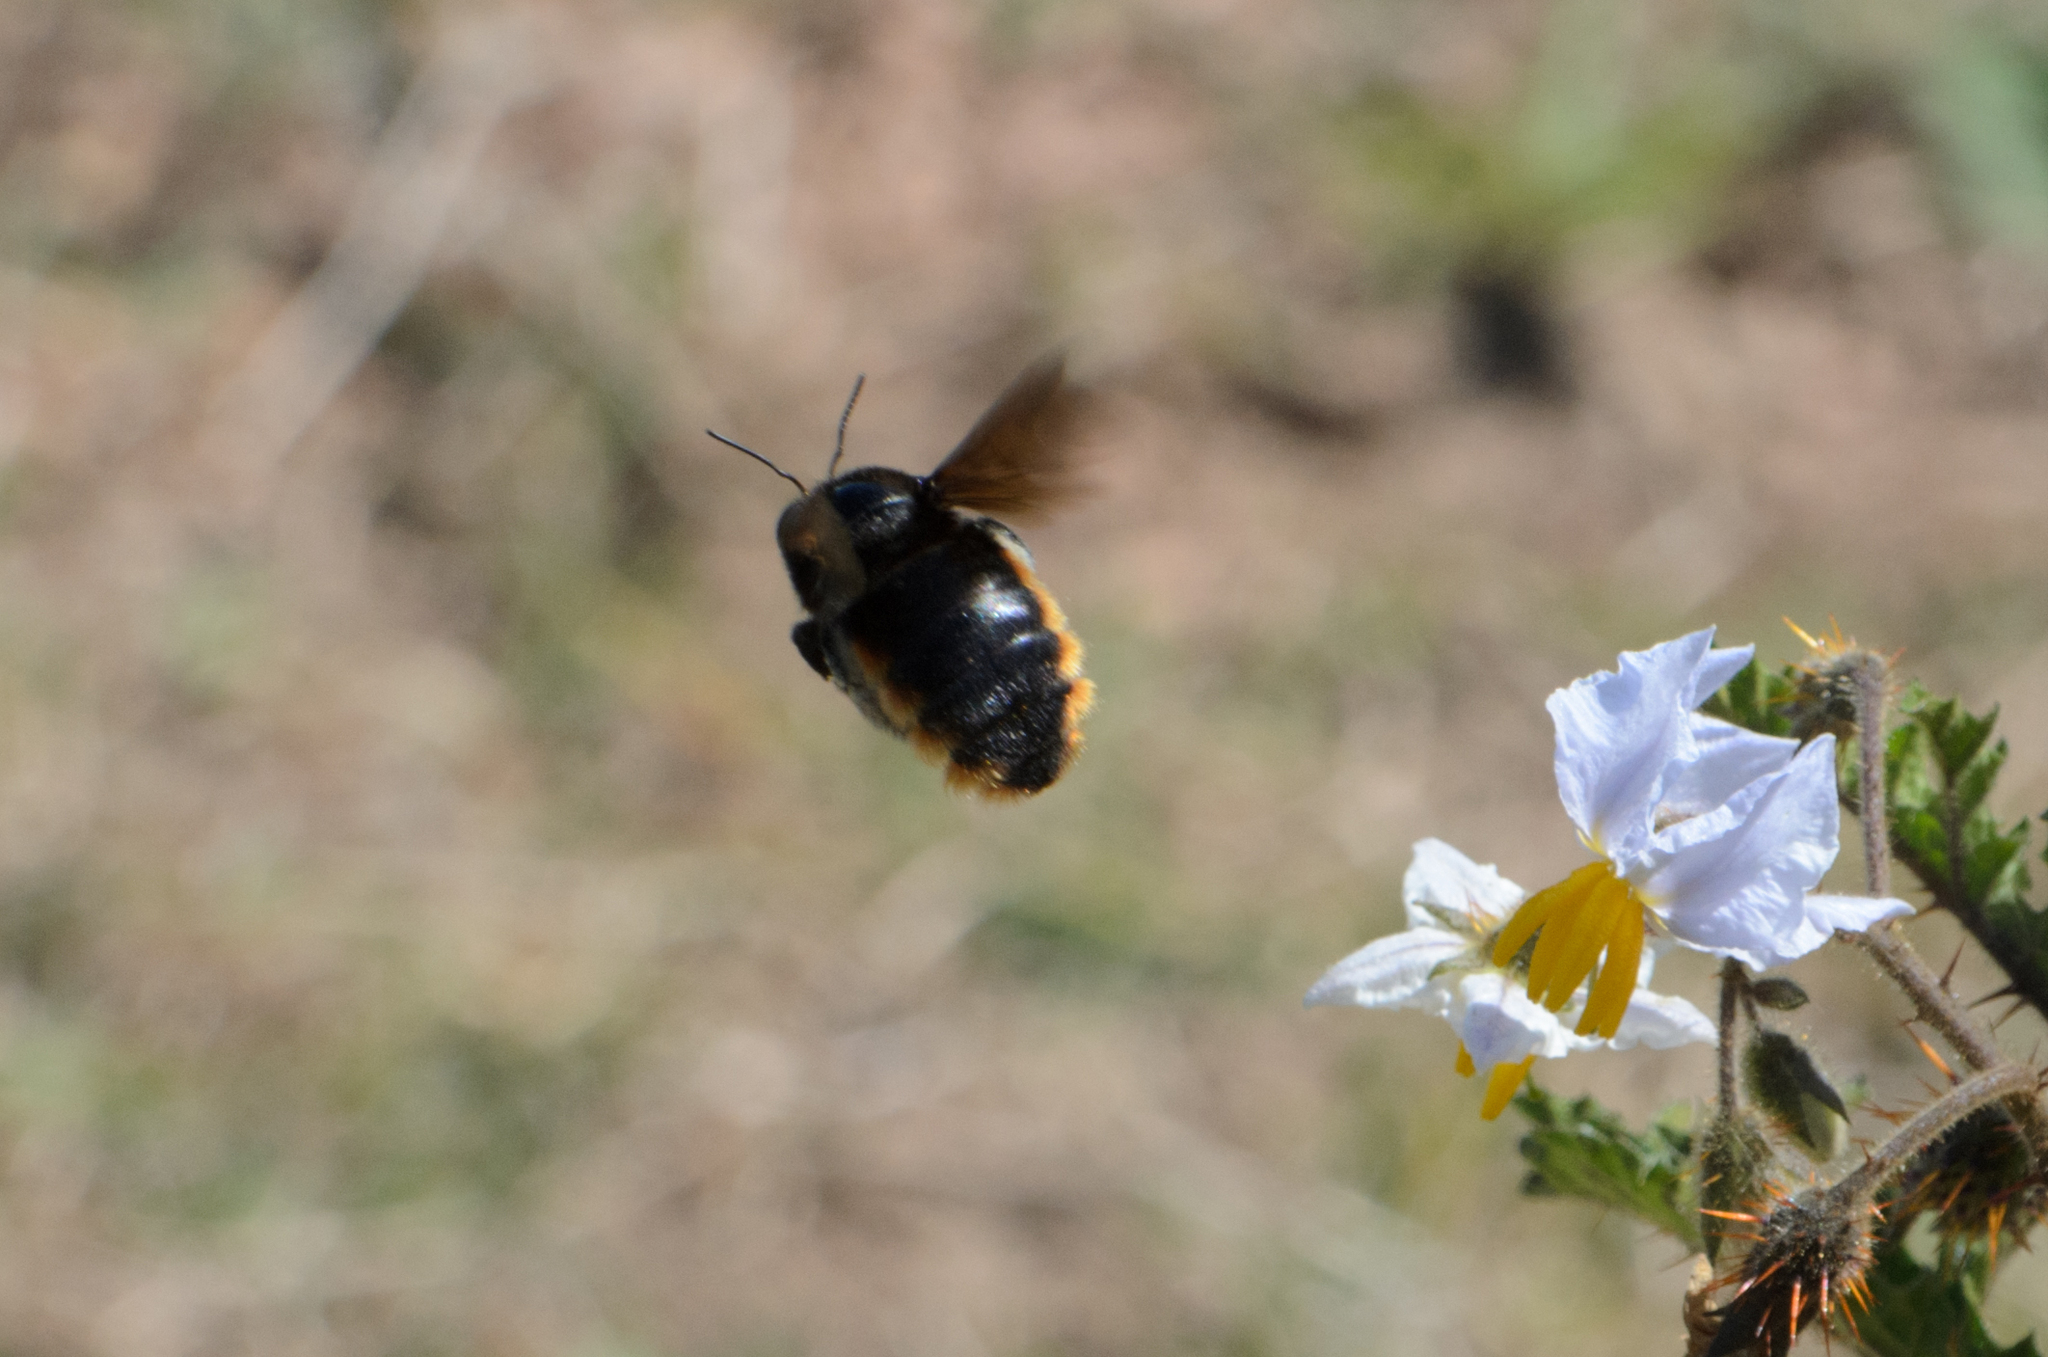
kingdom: Animalia
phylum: Arthropoda
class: Insecta
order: Hymenoptera
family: Apidae
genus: Xylocopa
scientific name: Xylocopa augusti
